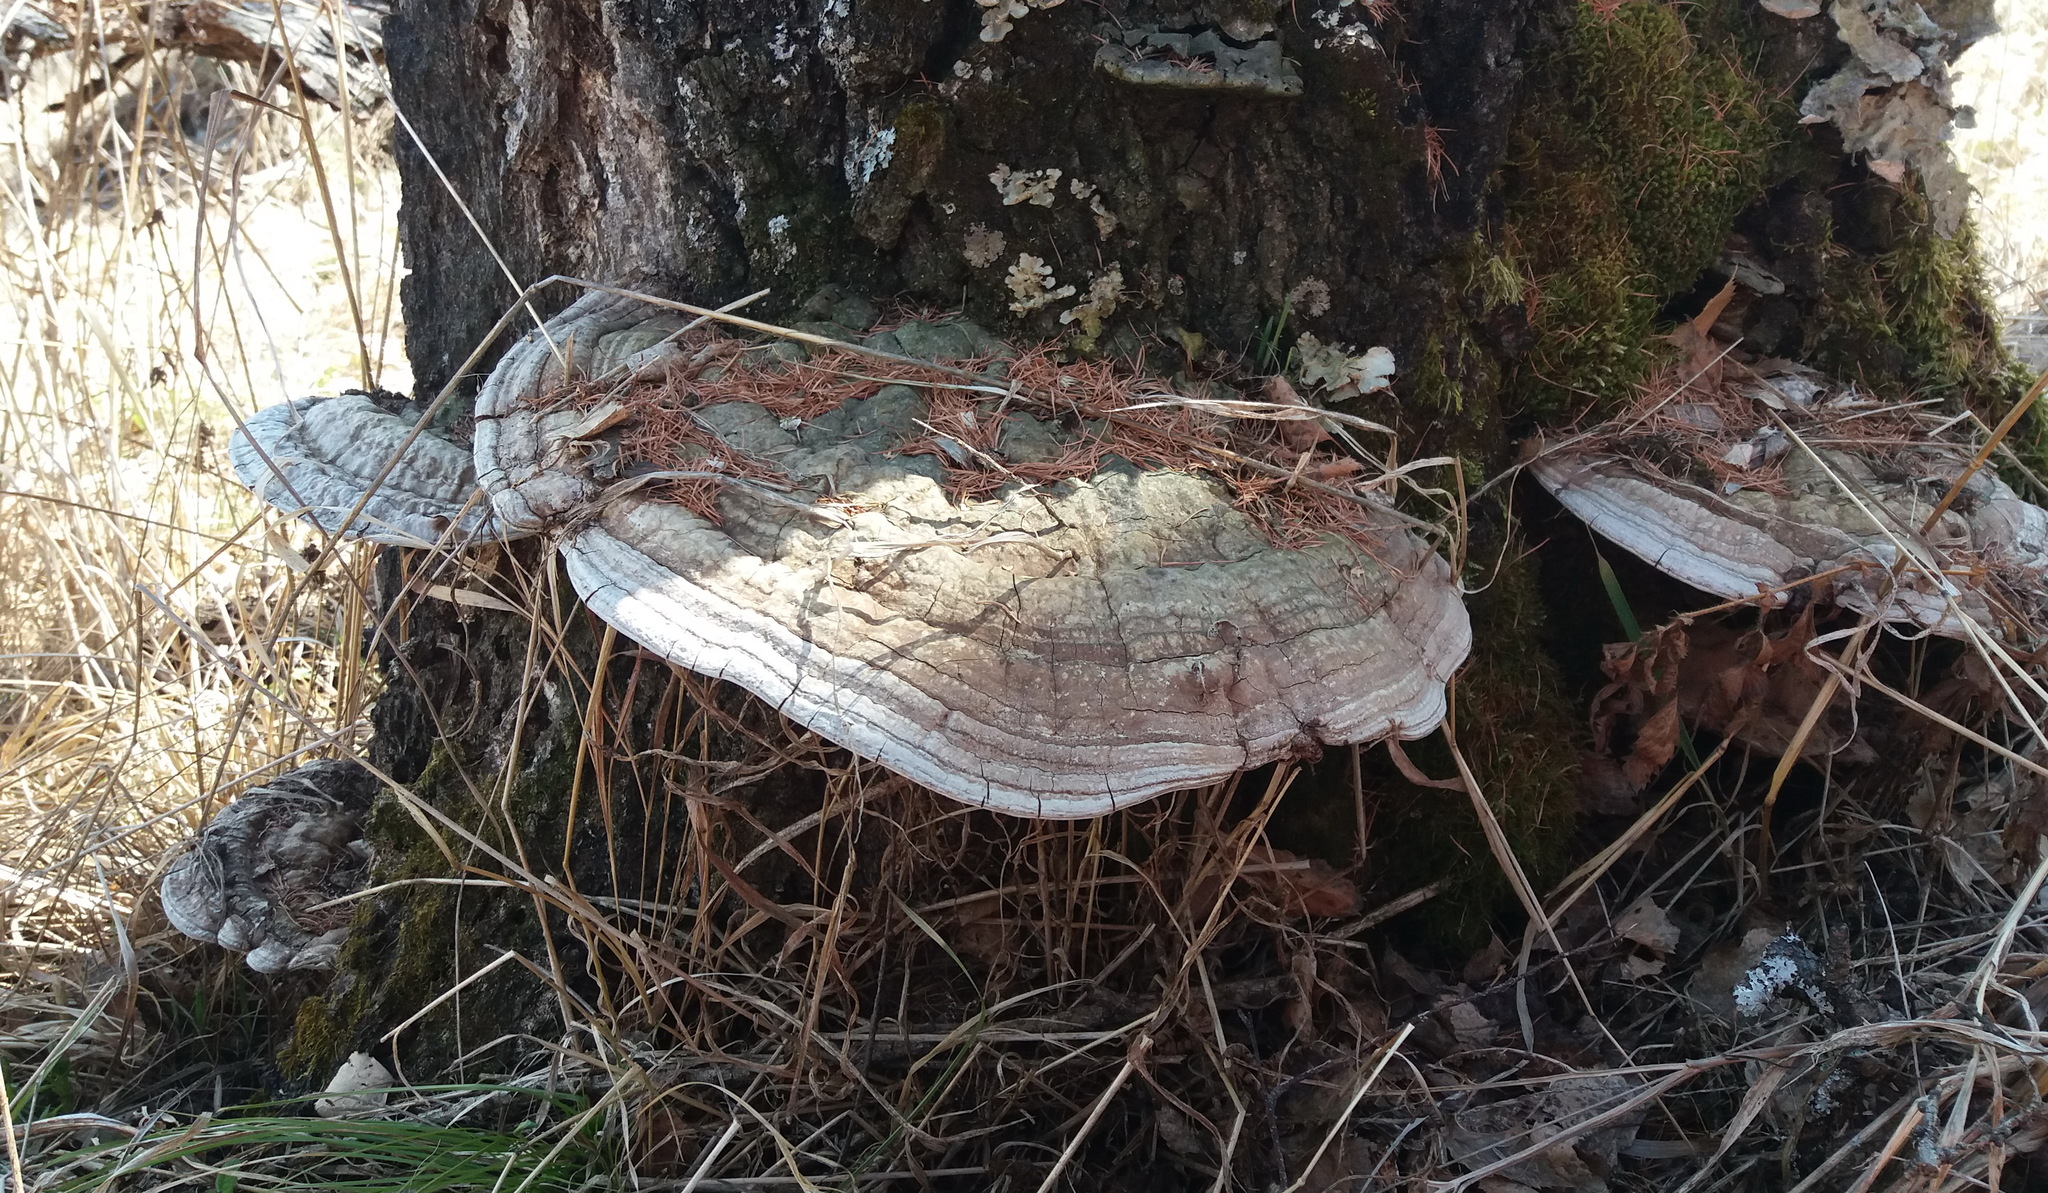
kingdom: Fungi
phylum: Basidiomycota
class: Agaricomycetes
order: Polyporales
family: Polyporaceae
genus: Ganoderma
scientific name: Ganoderma applanatum
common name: Artist's bracket
